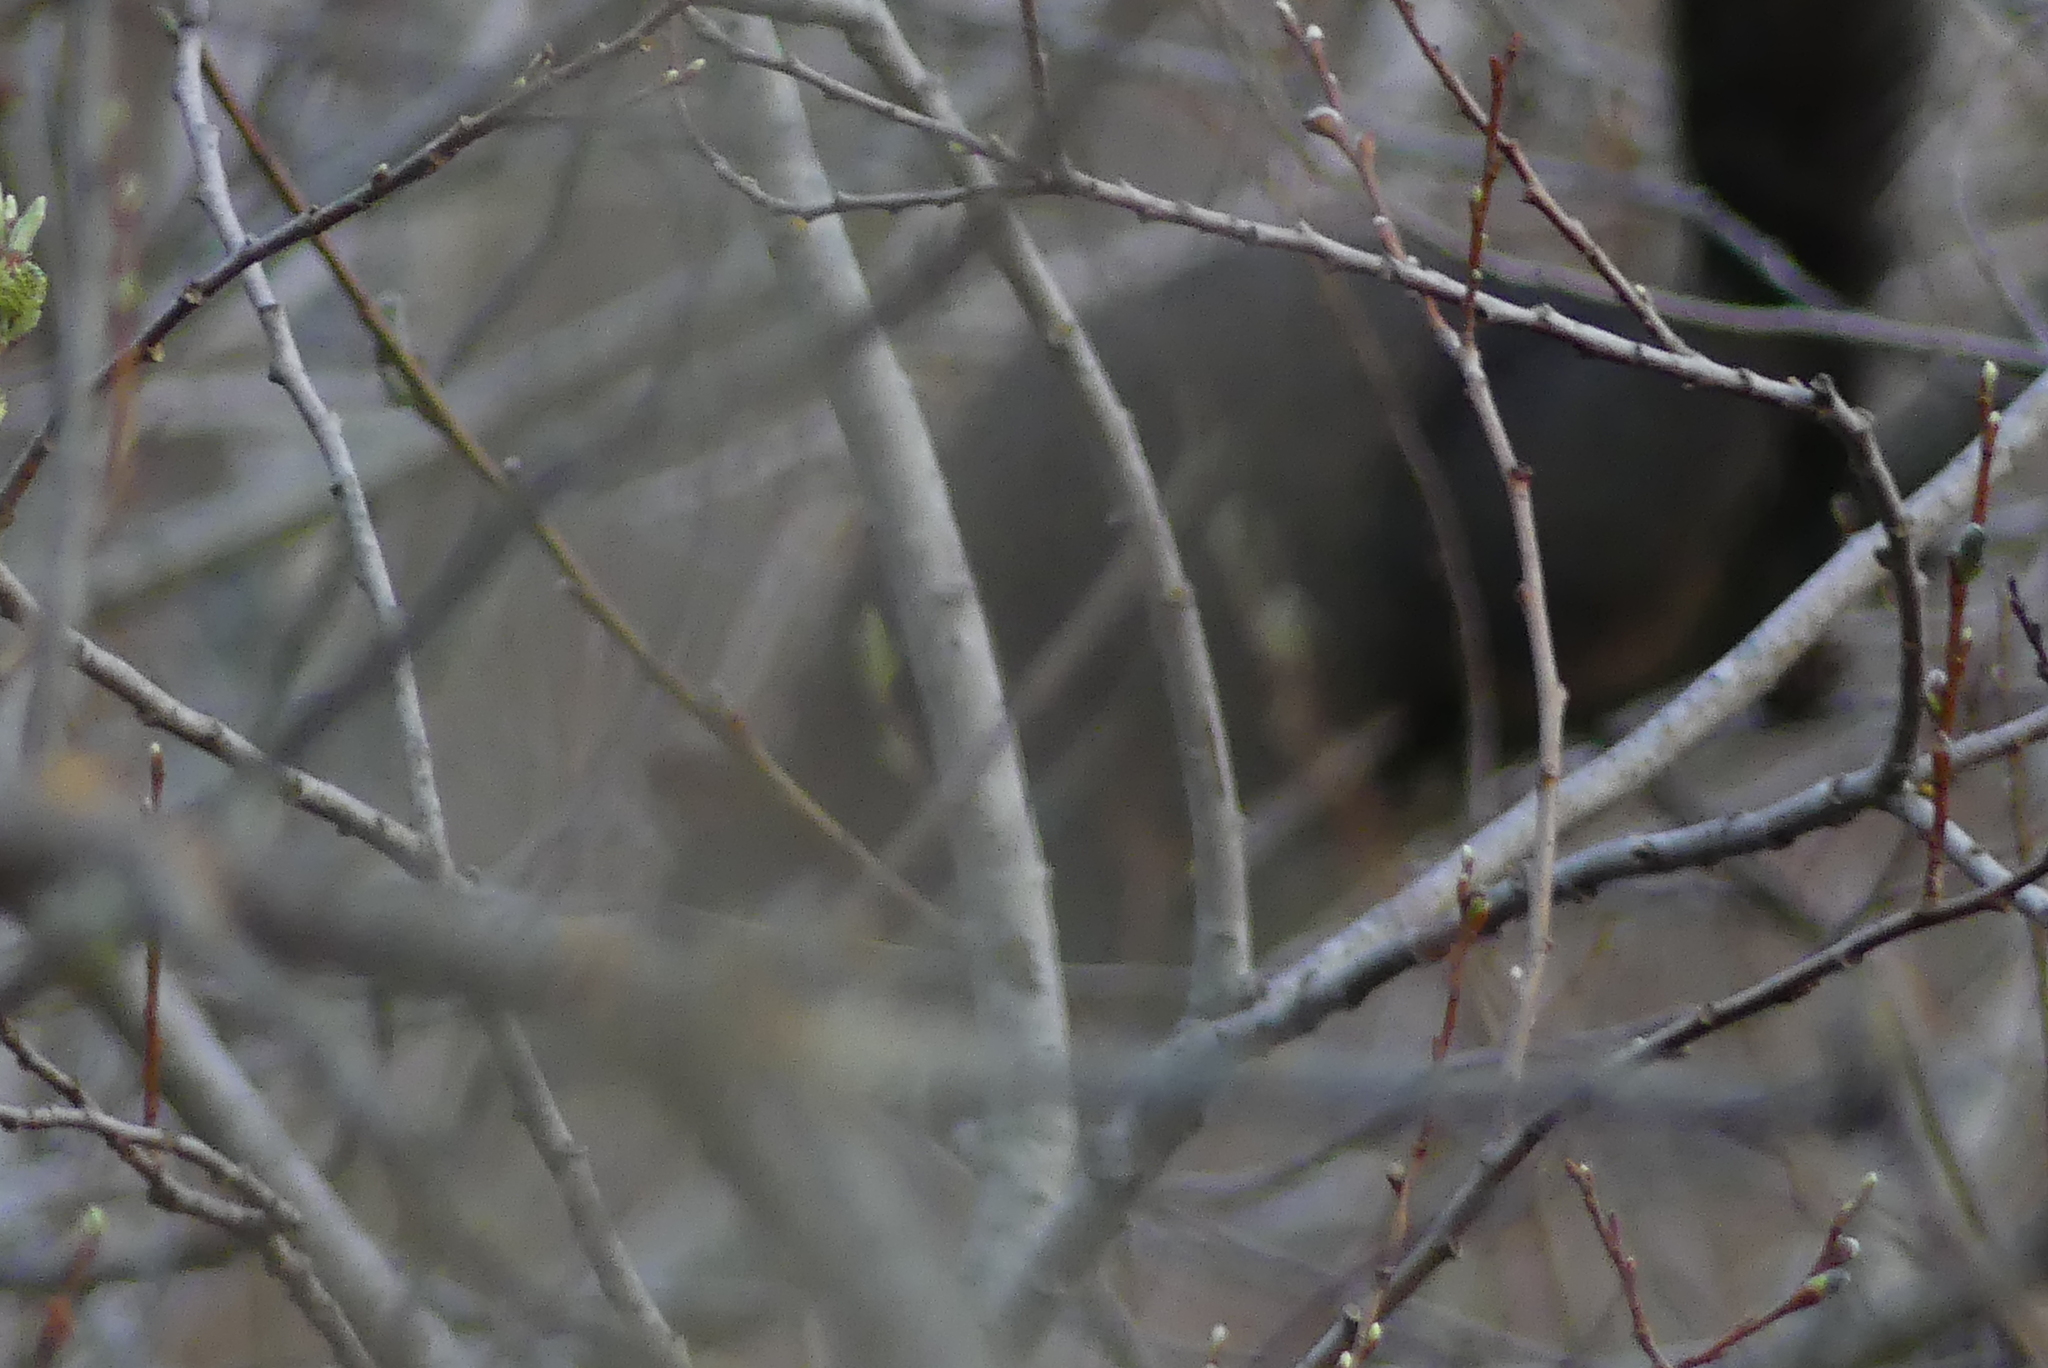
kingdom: Animalia
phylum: Chordata
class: Mammalia
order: Rodentia
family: Sciuridae
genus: Sciurus
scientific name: Sciurus carolinensis
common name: Eastern gray squirrel
